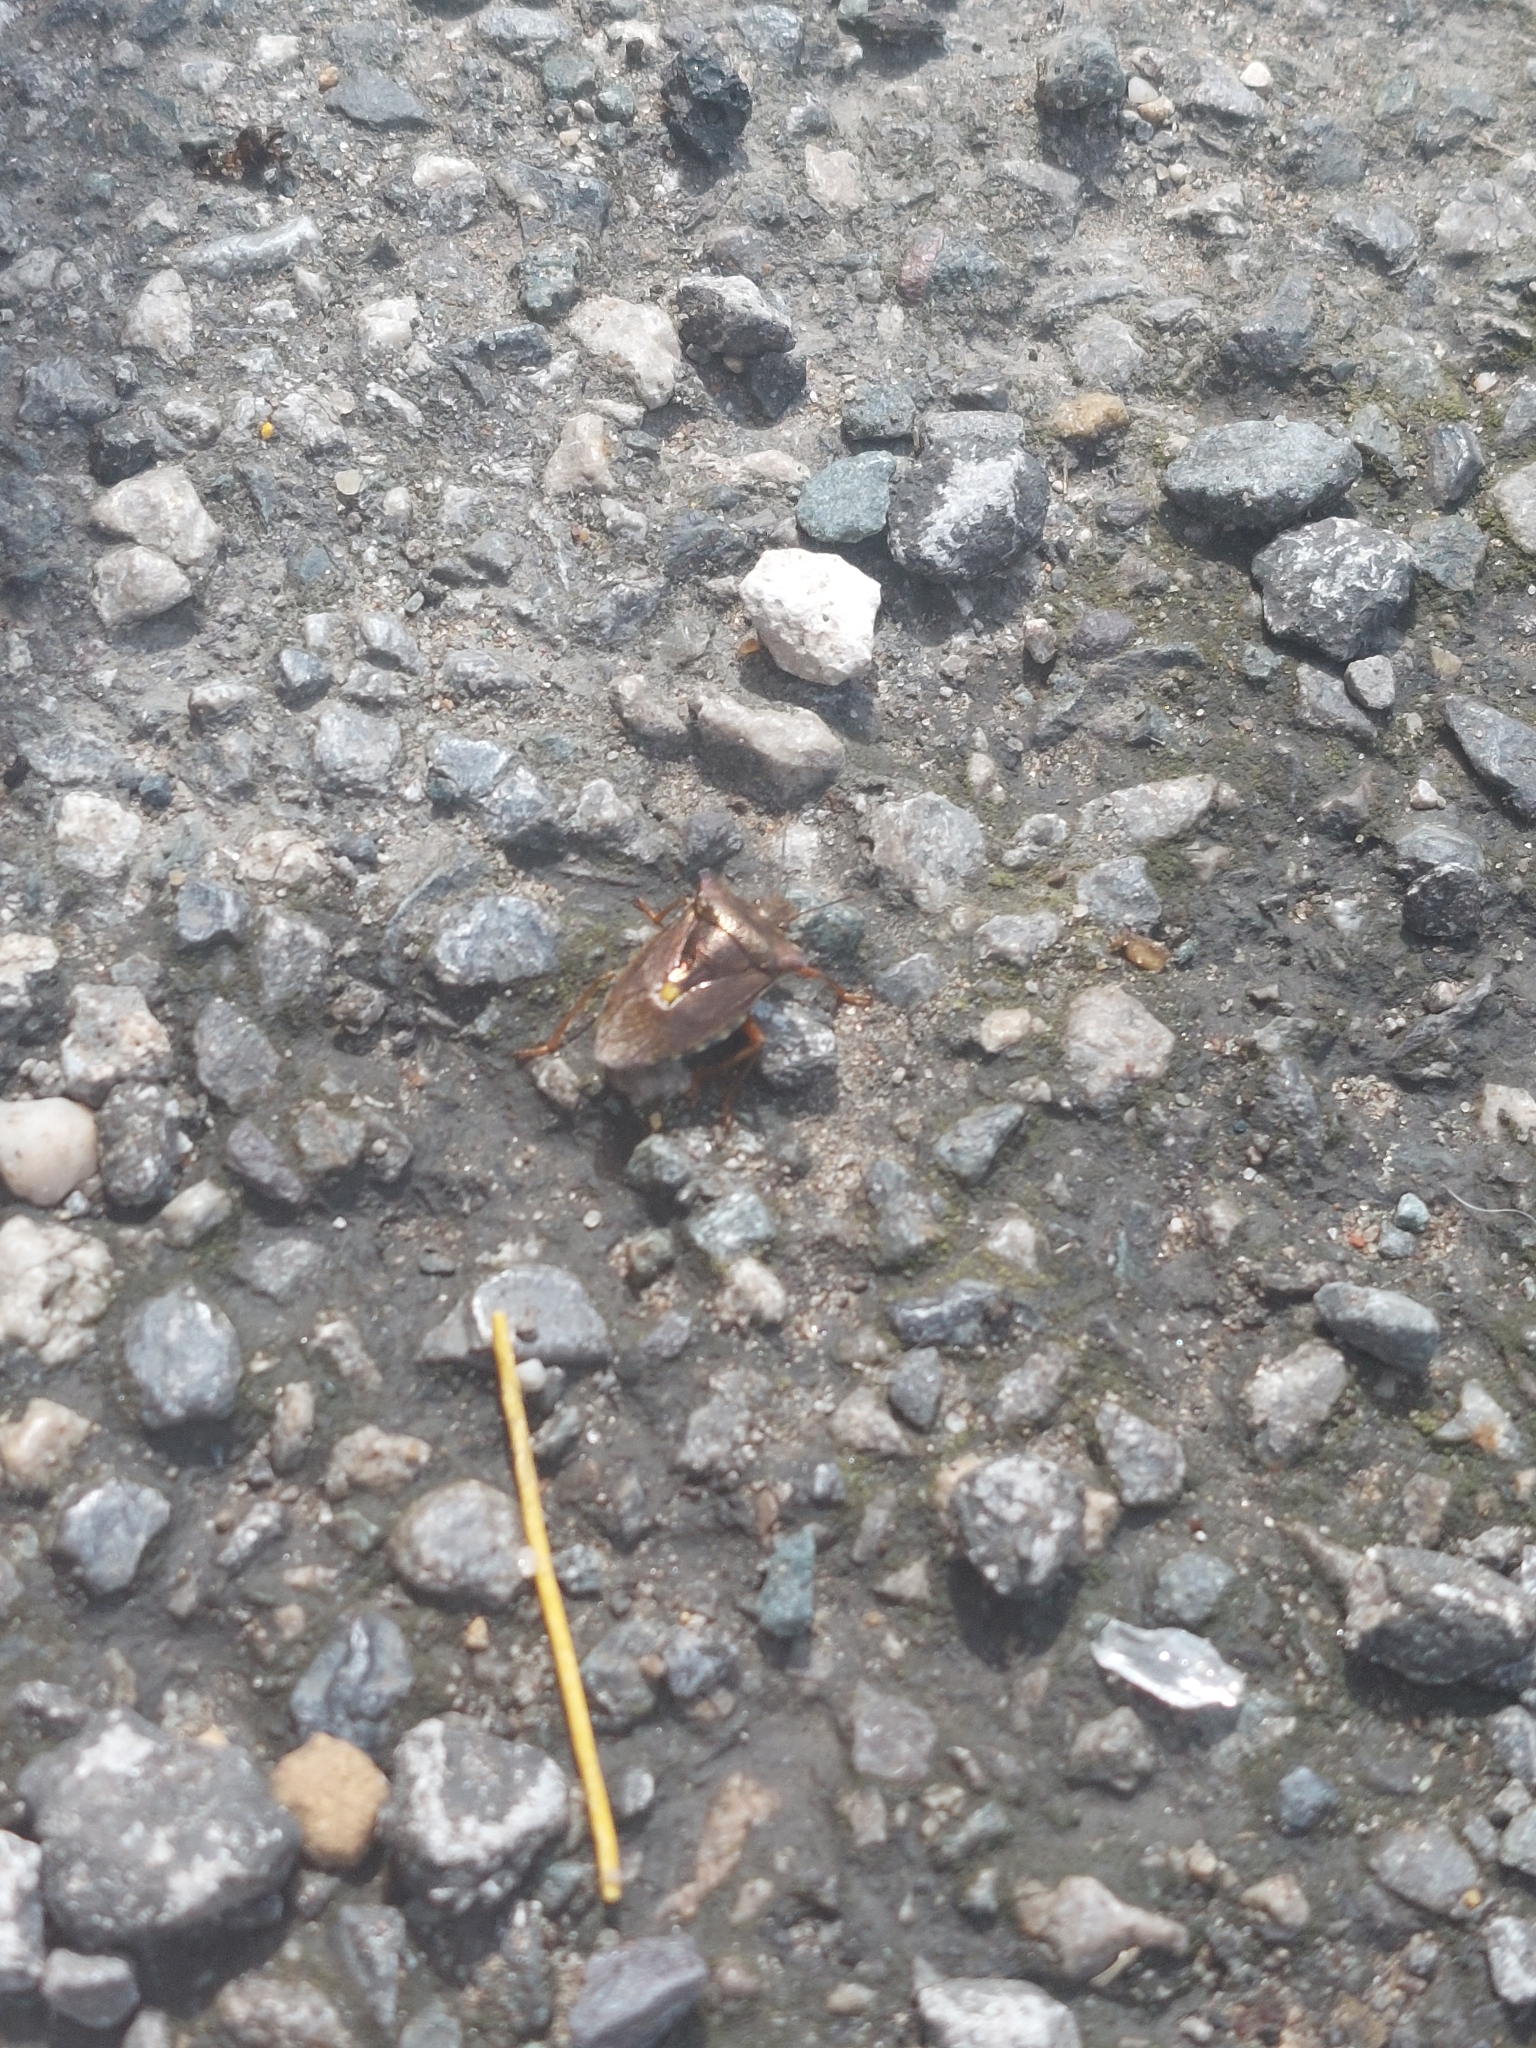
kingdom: Animalia
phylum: Arthropoda
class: Insecta
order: Hemiptera
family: Pentatomidae
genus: Pentatoma
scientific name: Pentatoma rufipes
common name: Forest bug
